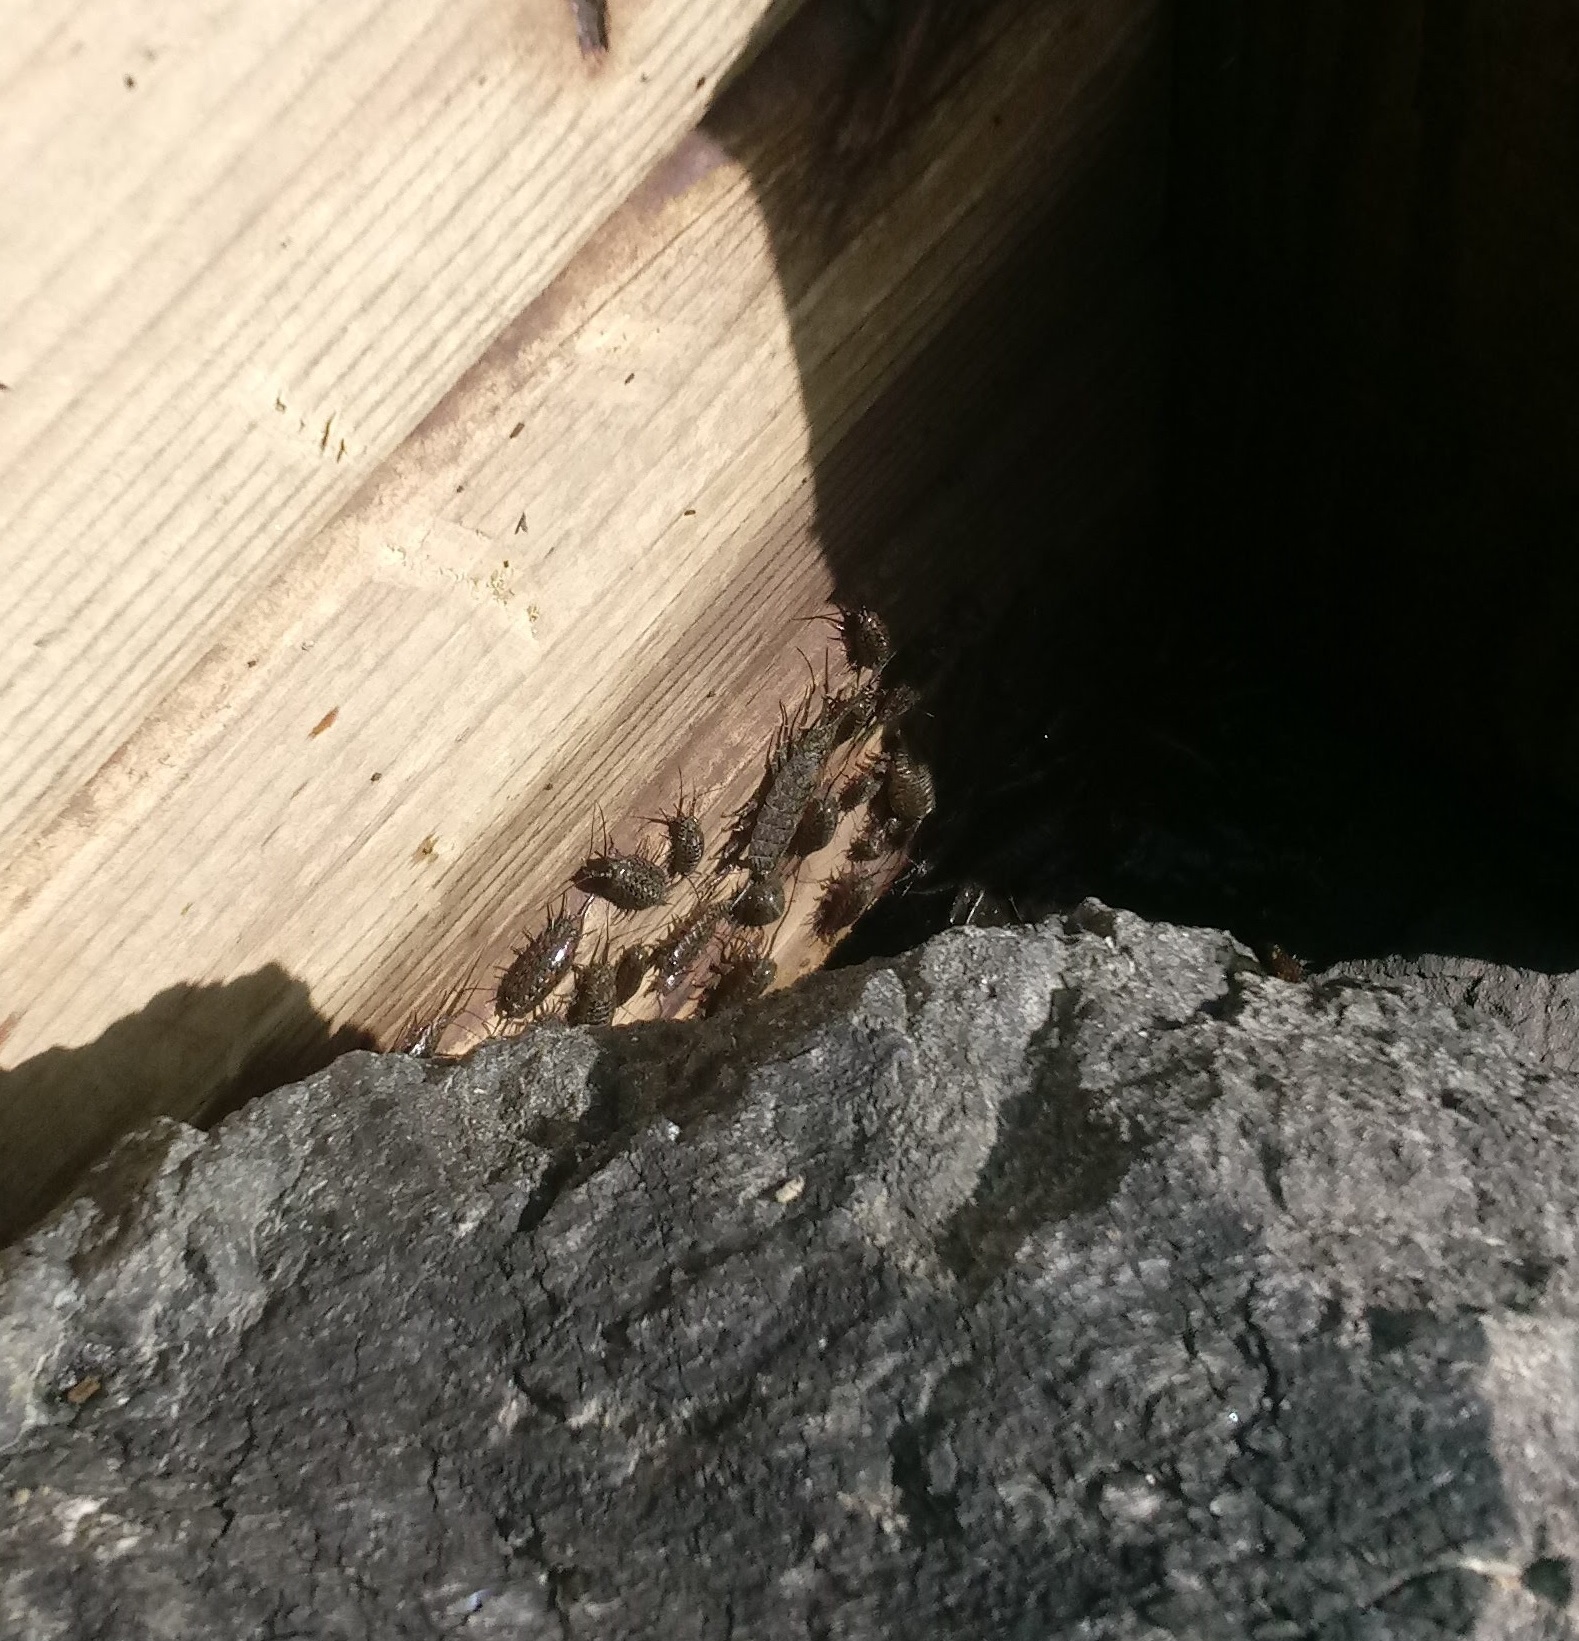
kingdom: Animalia
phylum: Arthropoda
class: Malacostraca
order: Isopoda
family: Ligiidae
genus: Ligia
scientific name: Ligia exotica
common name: Wharf roach
